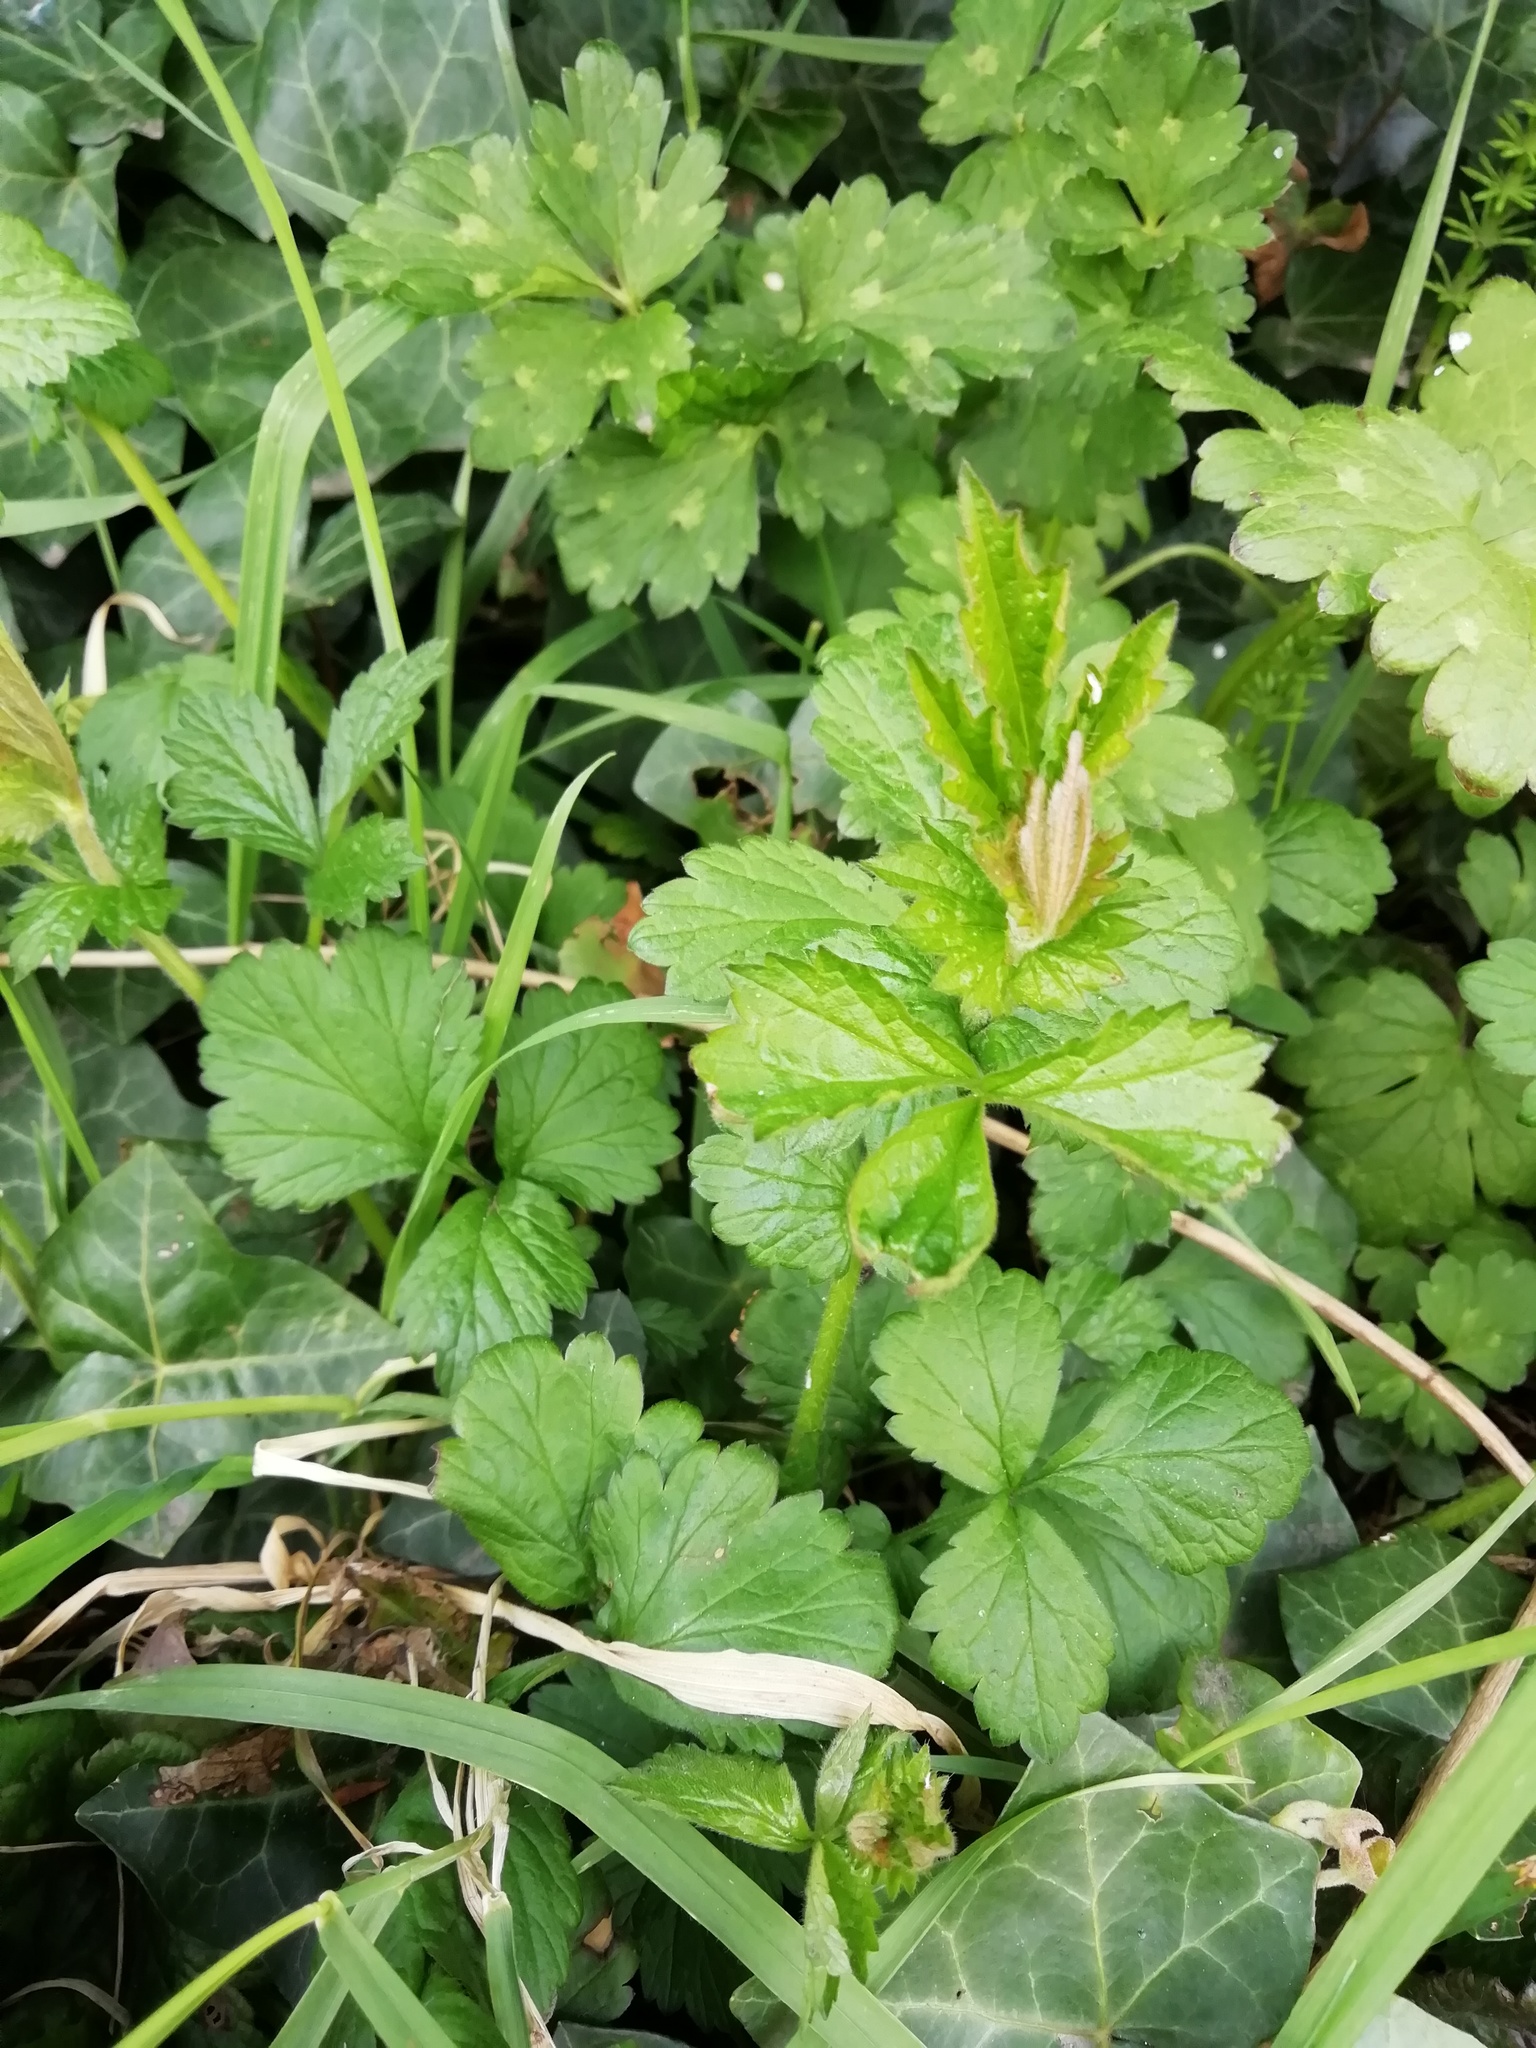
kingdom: Plantae
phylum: Tracheophyta
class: Magnoliopsida
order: Rosales
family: Rosaceae
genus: Geum
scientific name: Geum urbanum
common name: Wood avens
